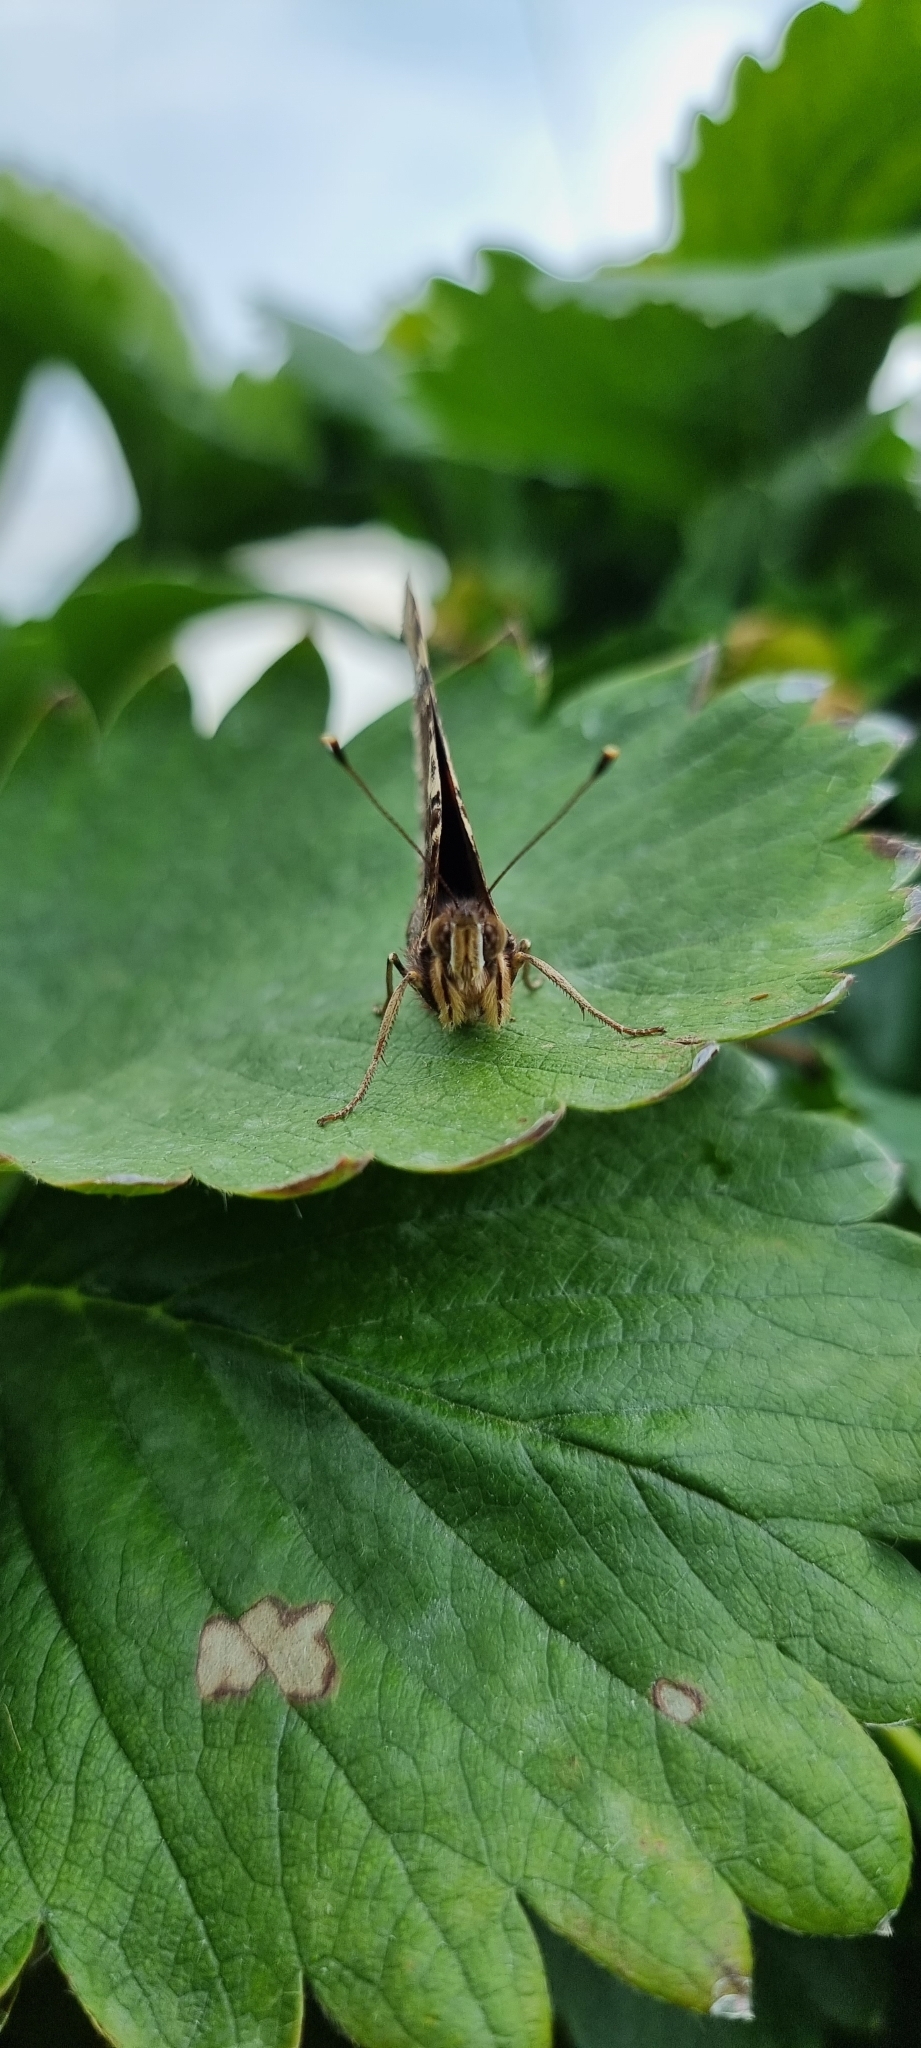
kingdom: Animalia
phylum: Arthropoda
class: Insecta
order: Lepidoptera
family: Nymphalidae
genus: Vanessa
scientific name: Vanessa atalanta
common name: Red admiral
